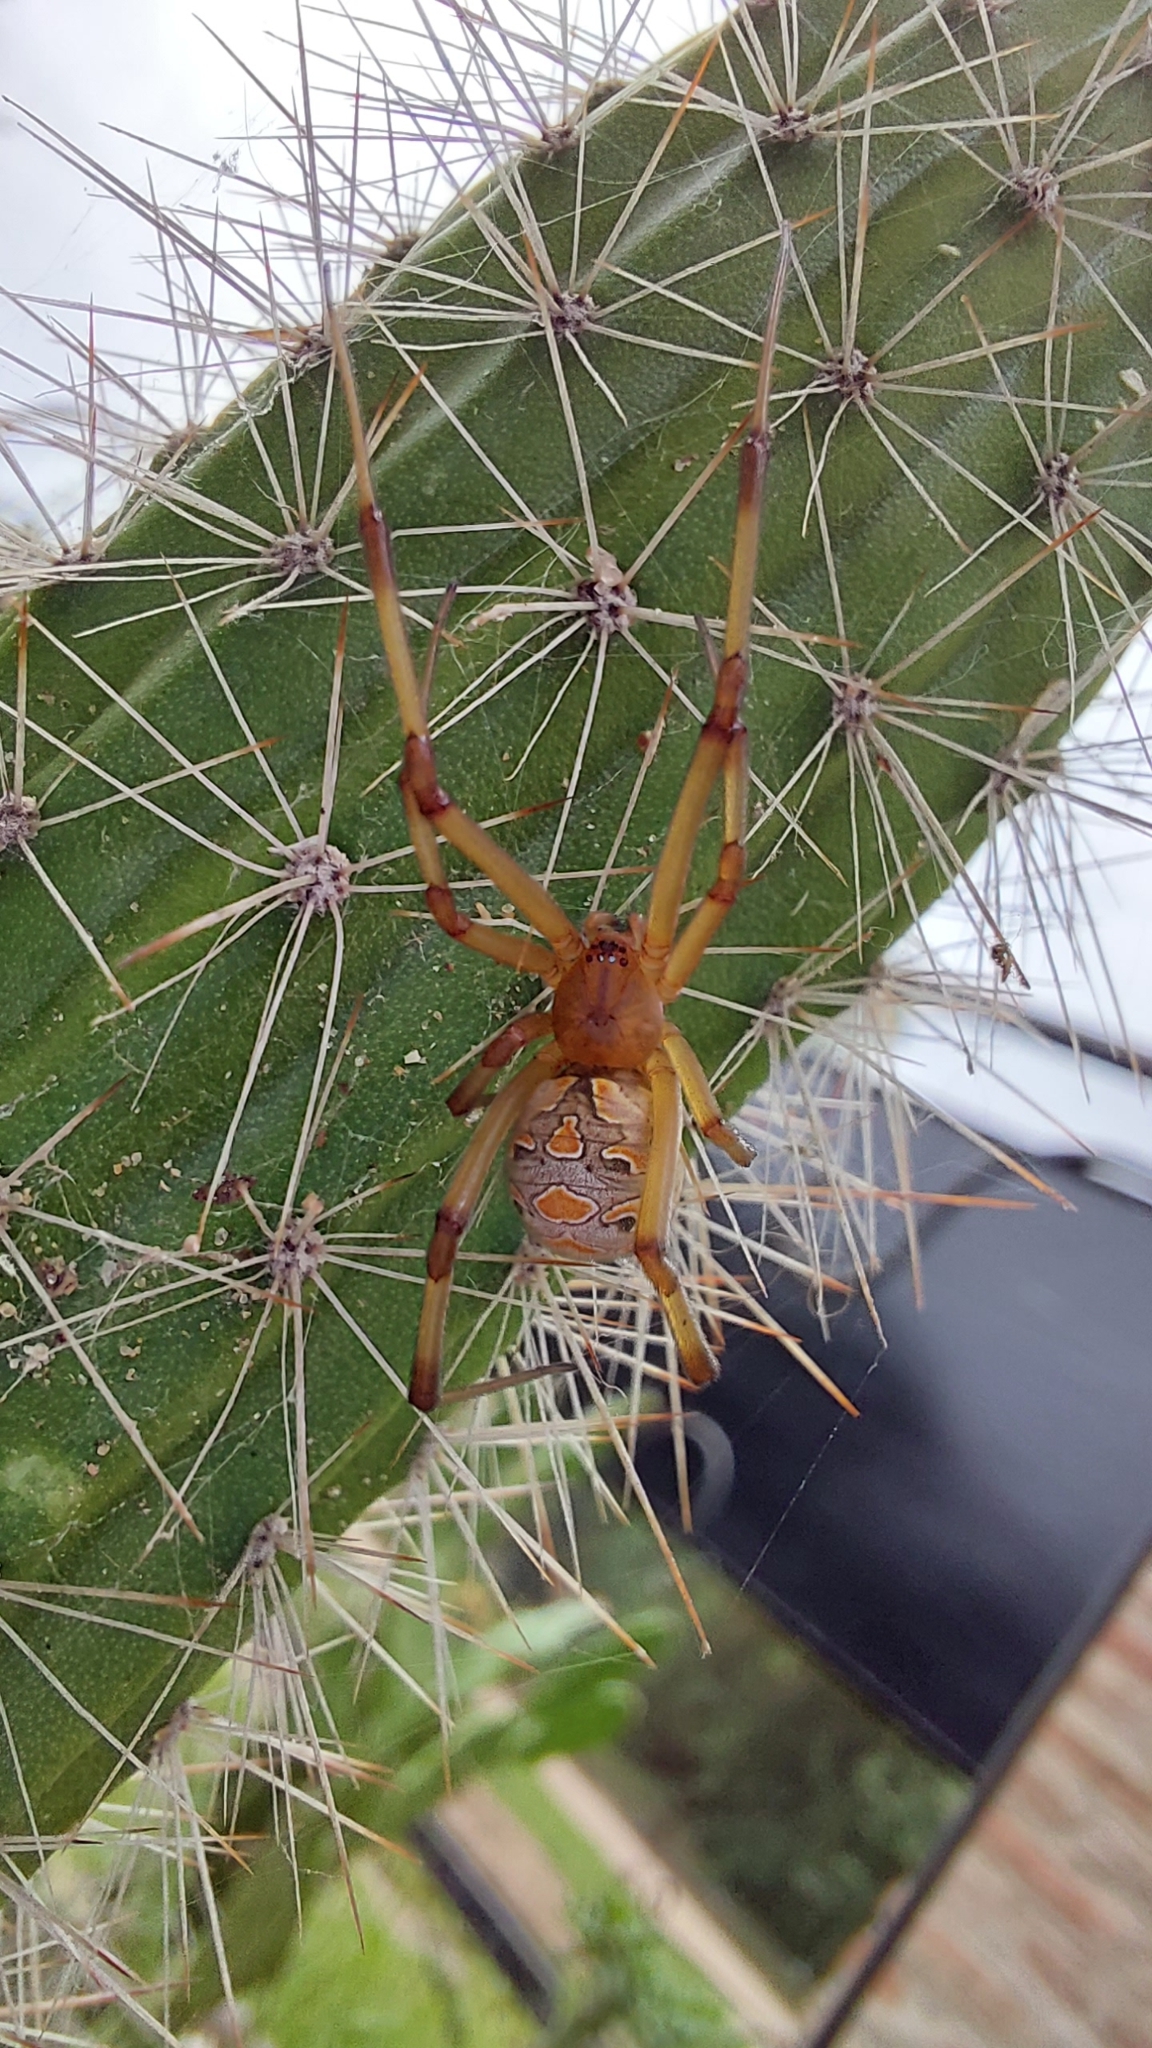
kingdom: Animalia
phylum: Arthropoda
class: Arachnida
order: Araneae
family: Theridiidae
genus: Latrodectus
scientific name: Latrodectus geometricus
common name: Brown widow spider
